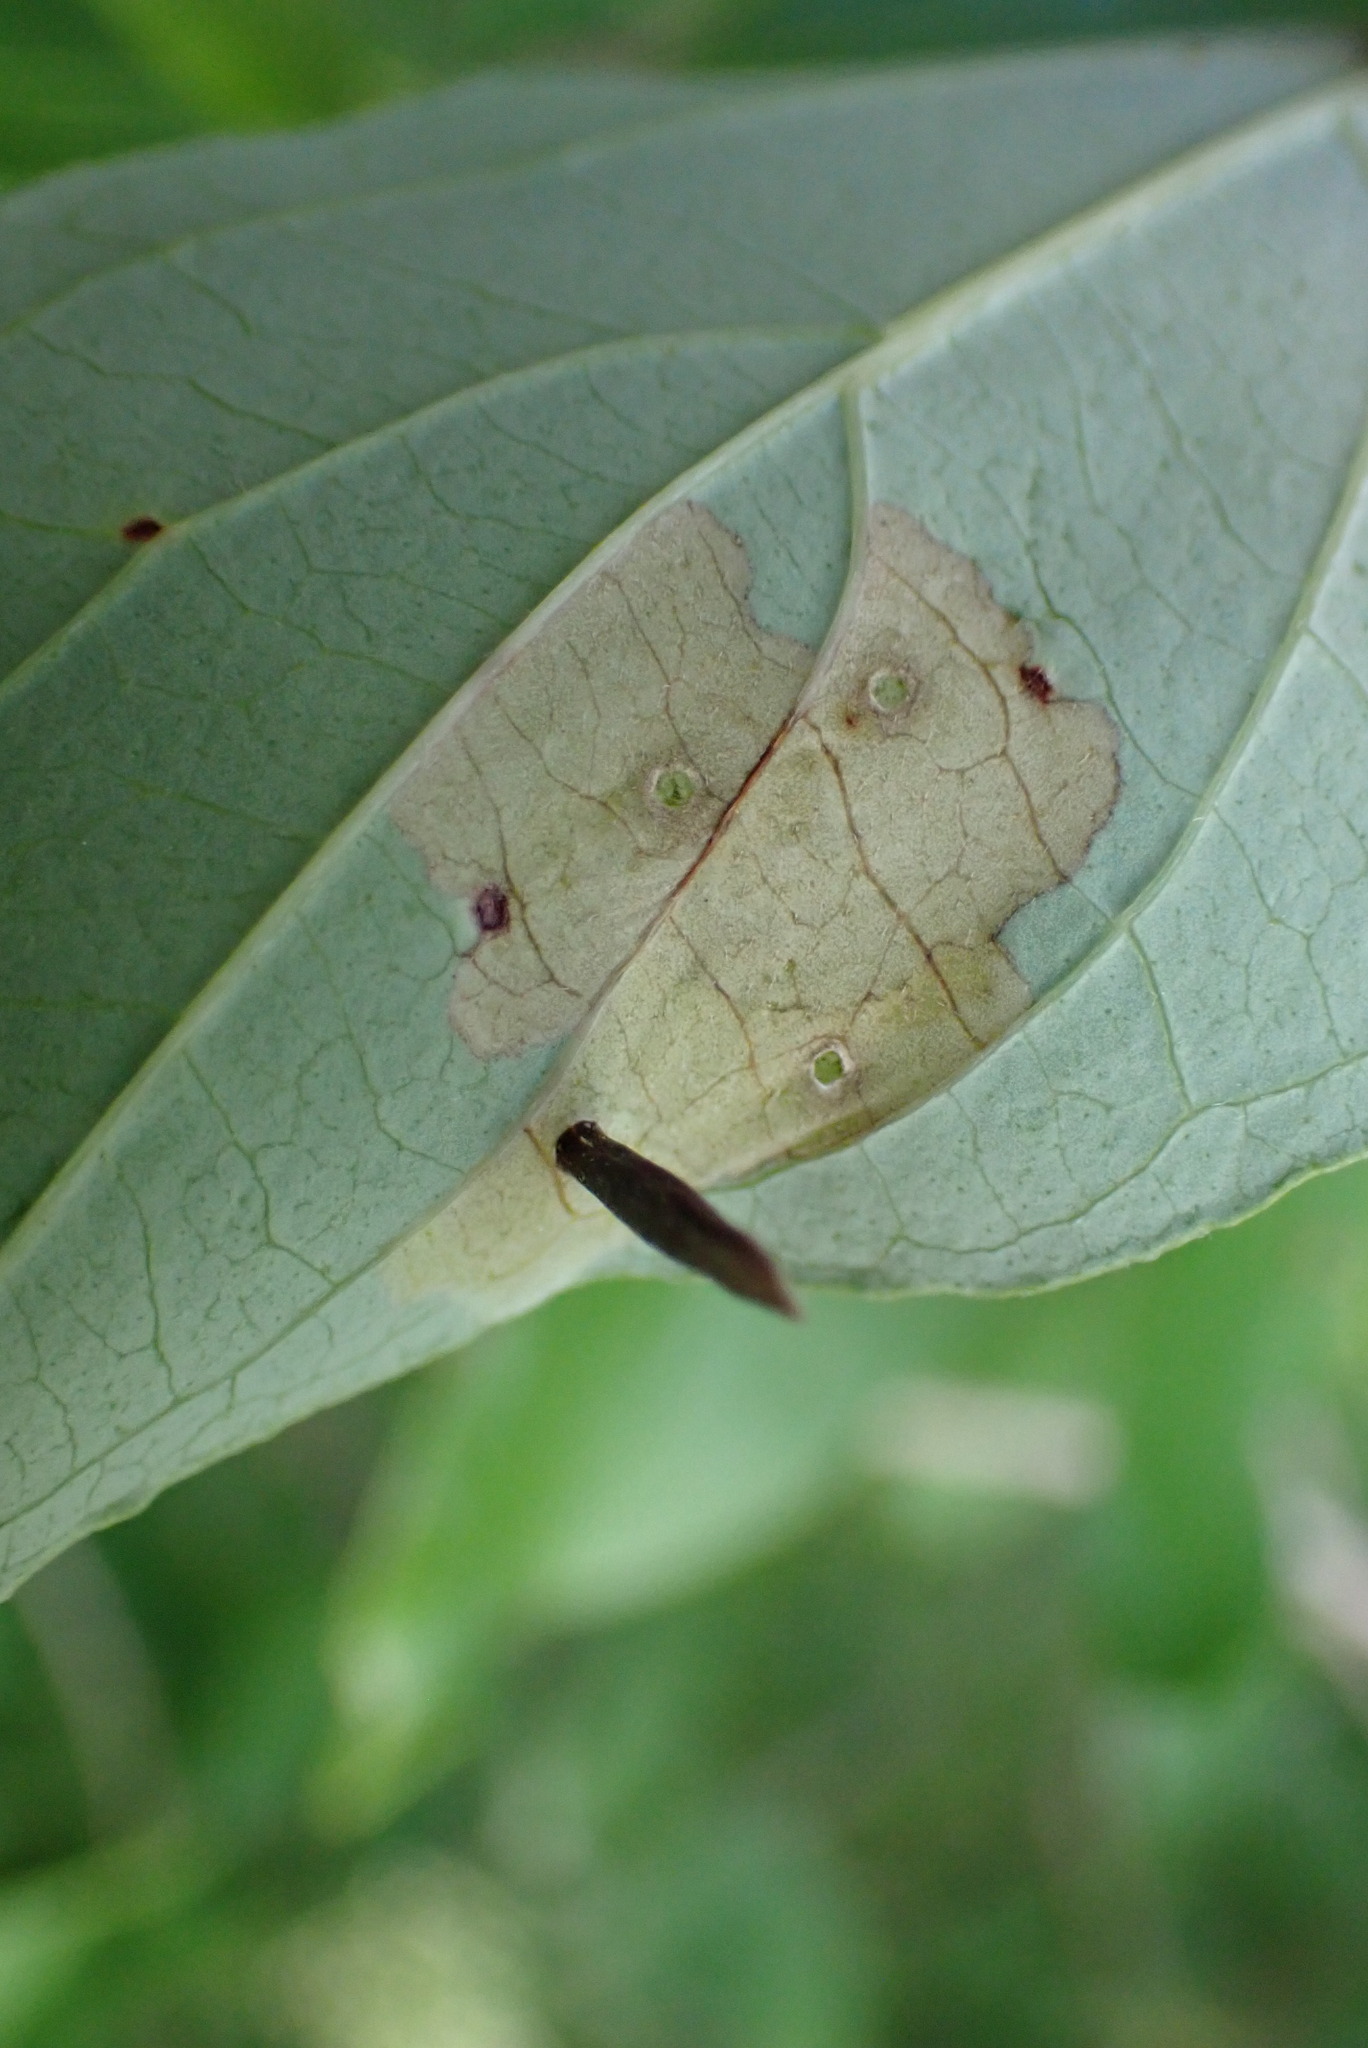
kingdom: Animalia
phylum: Arthropoda
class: Insecta
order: Lepidoptera
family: Coleophoridae
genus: Coleophora
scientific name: Coleophora cornella
